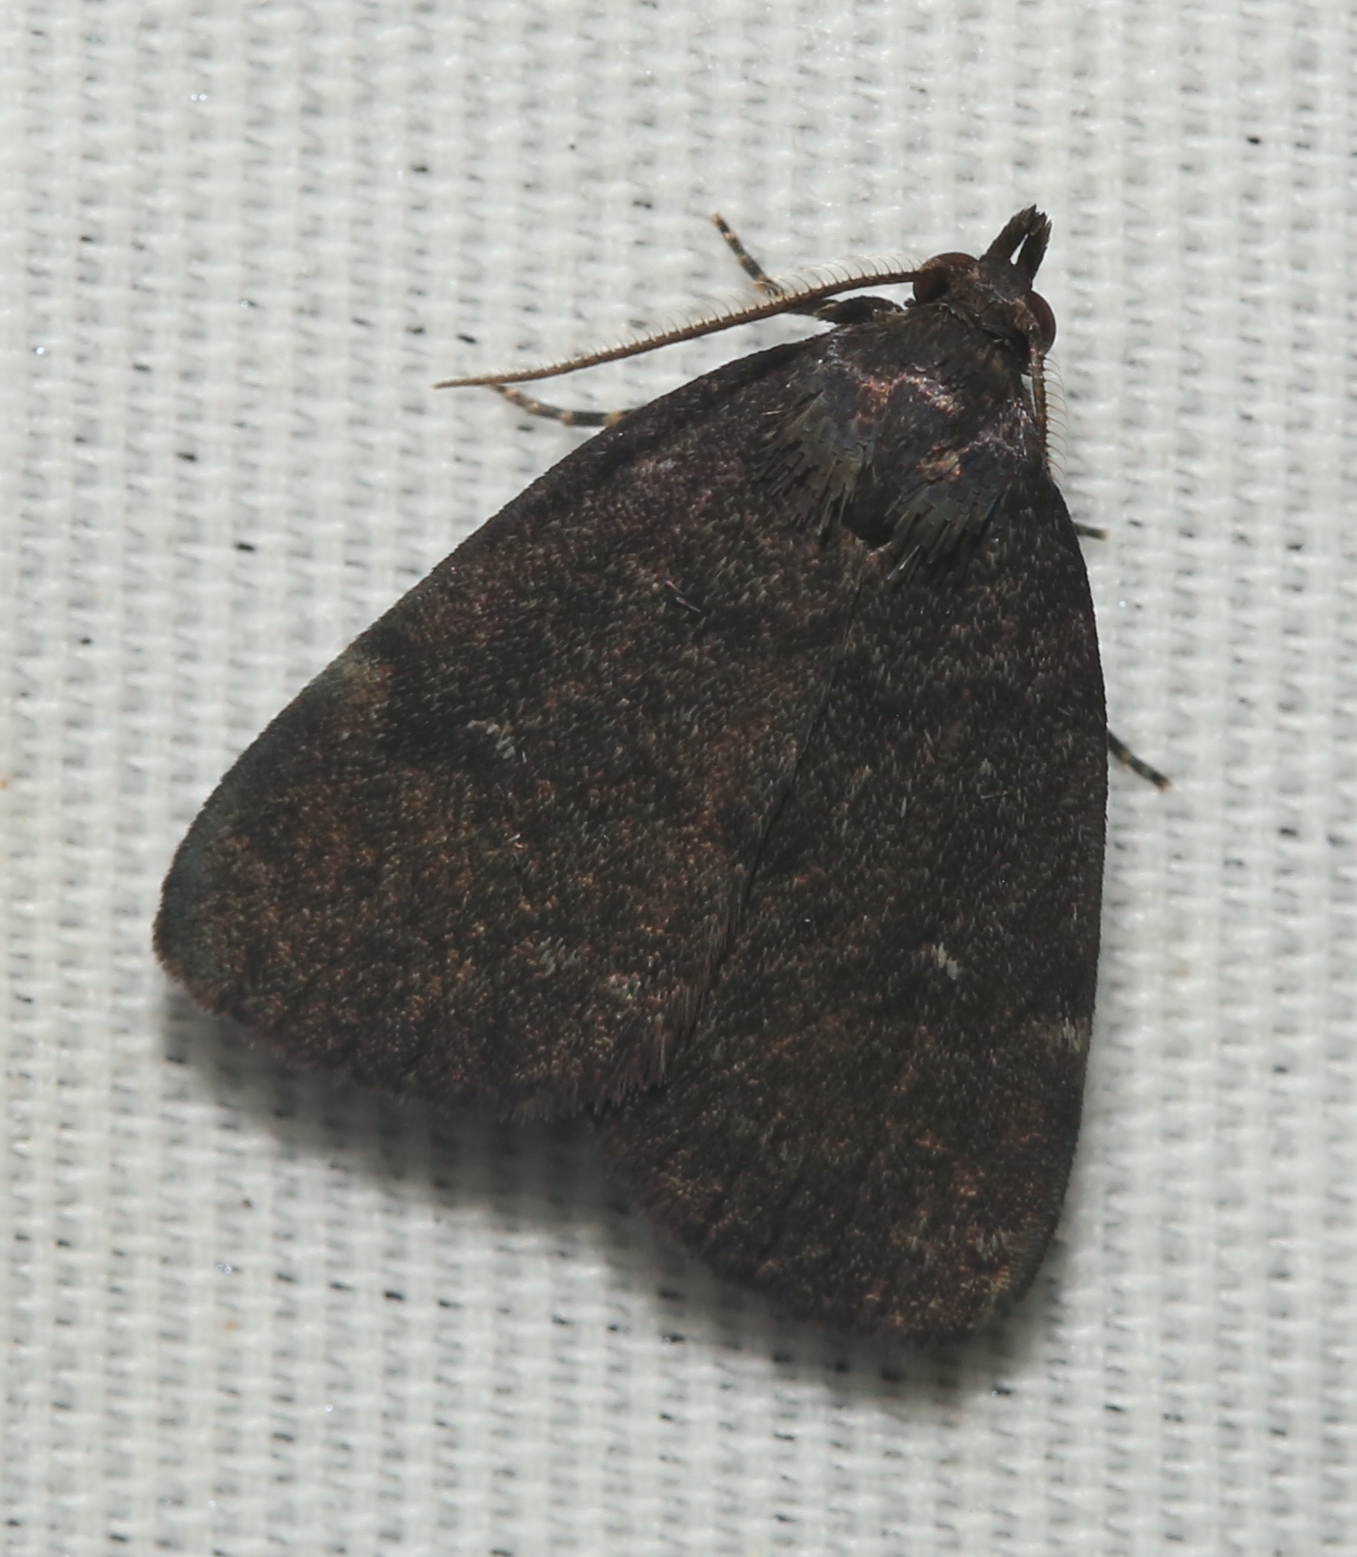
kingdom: Animalia
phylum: Arthropoda
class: Insecta
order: Lepidoptera
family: Erebidae
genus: Idia
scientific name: Idia rotundalis
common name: Rotund idia moth
